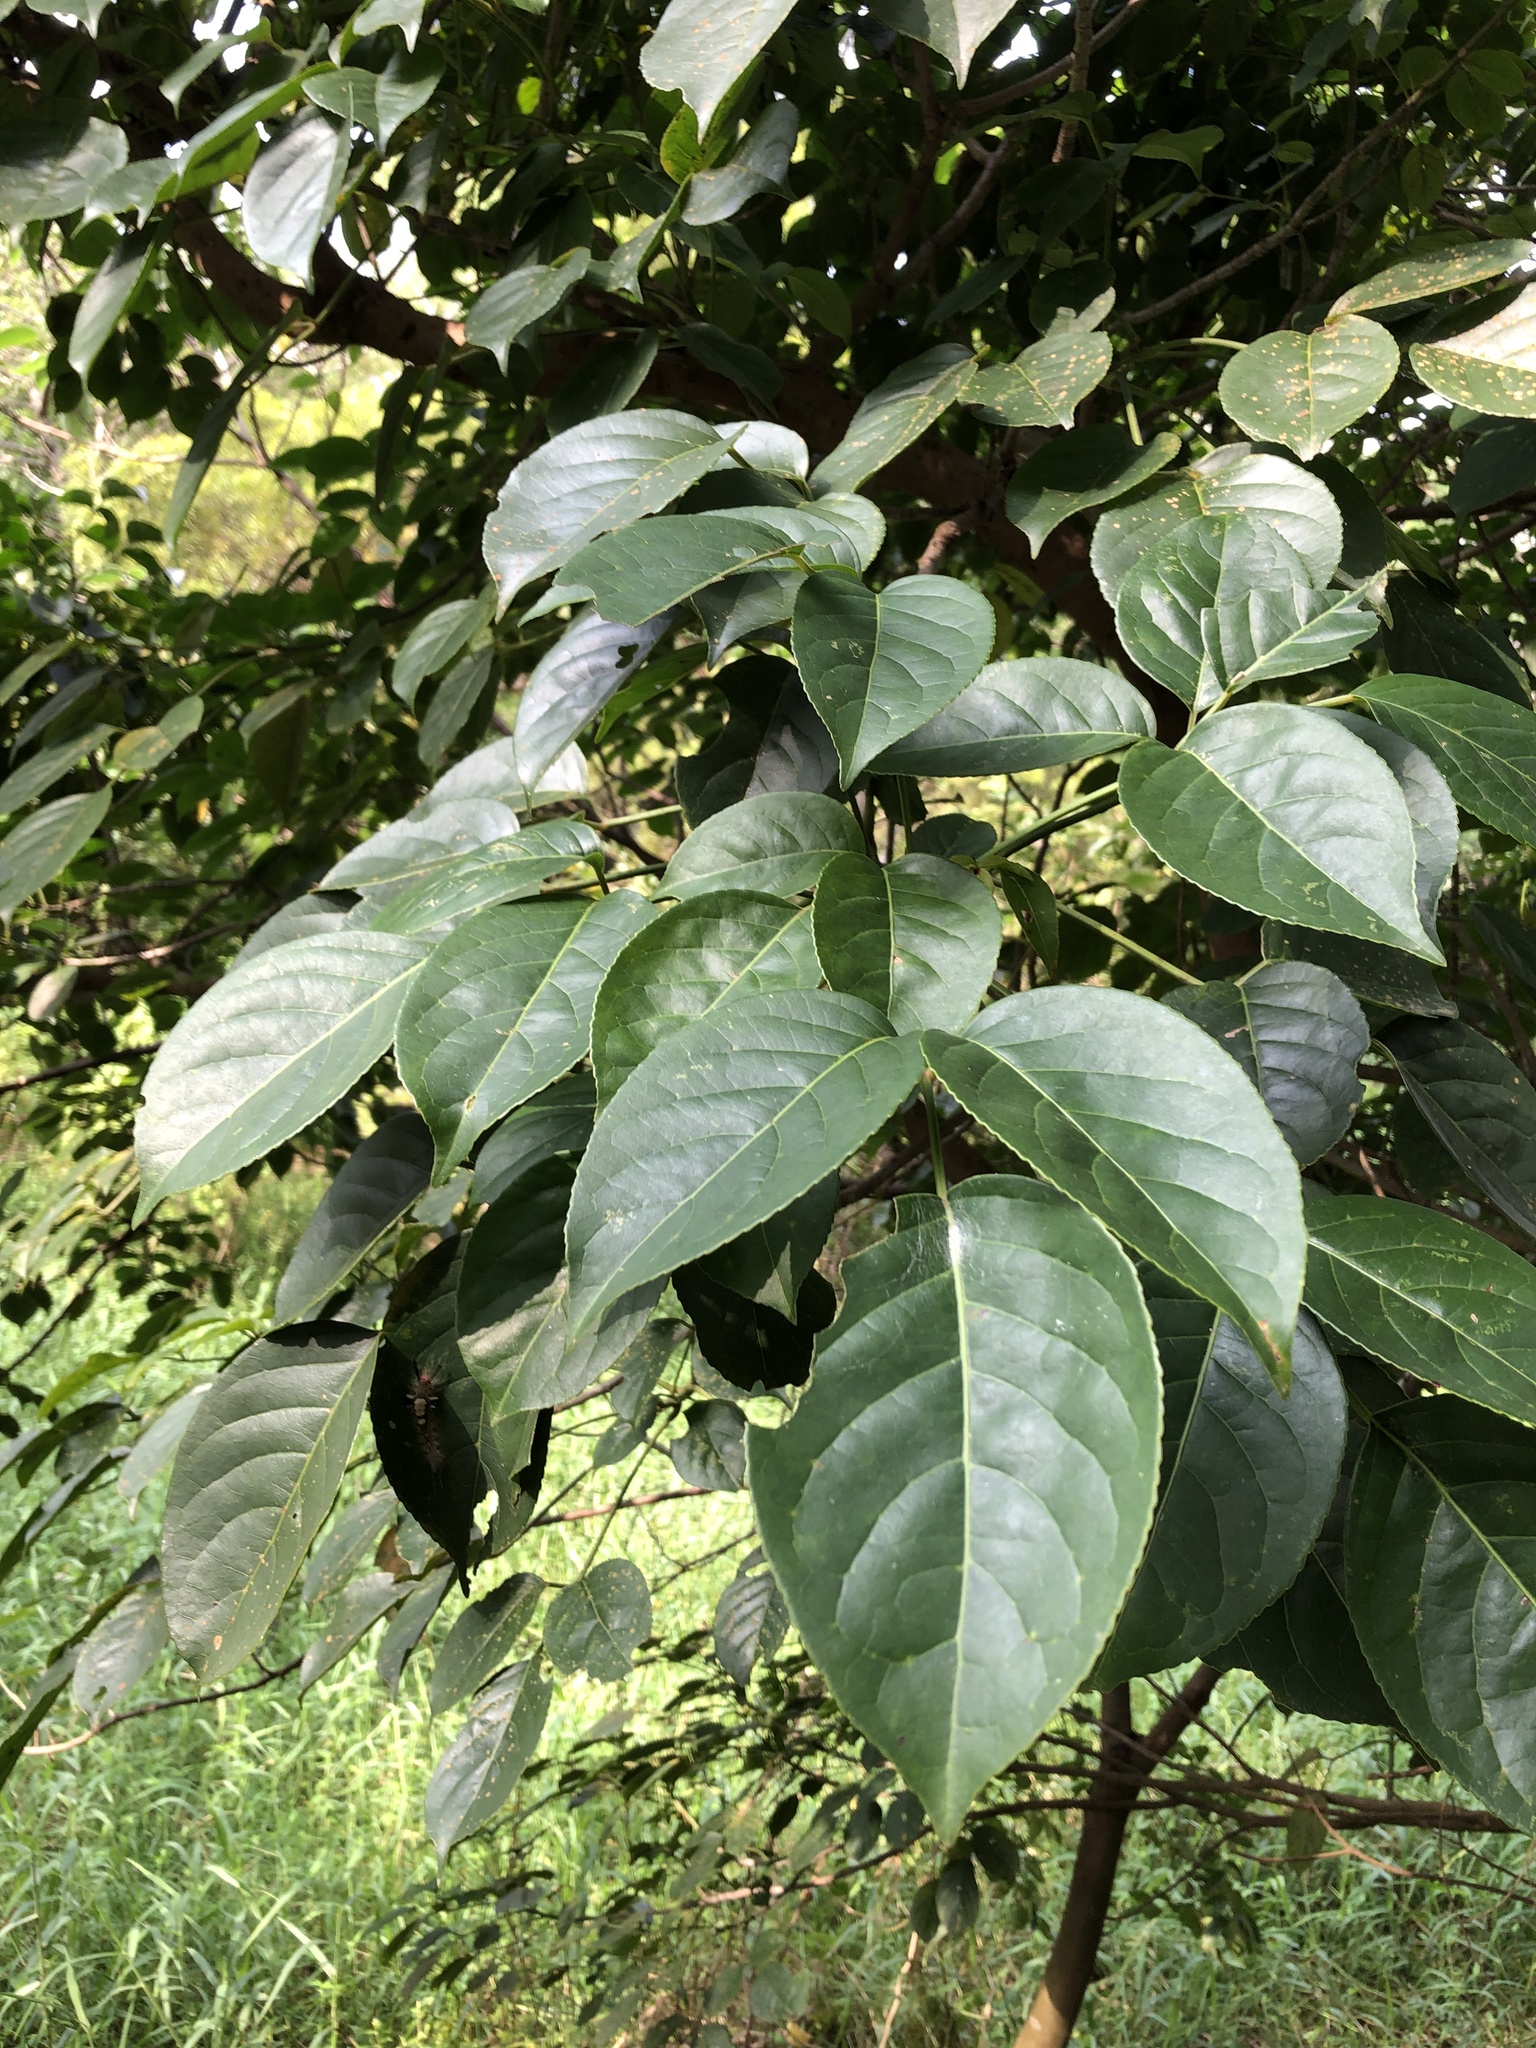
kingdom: Plantae
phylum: Tracheophyta
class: Magnoliopsida
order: Malpighiales
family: Phyllanthaceae
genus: Bischofia
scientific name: Bischofia javanica
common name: Javanese bishopwood
